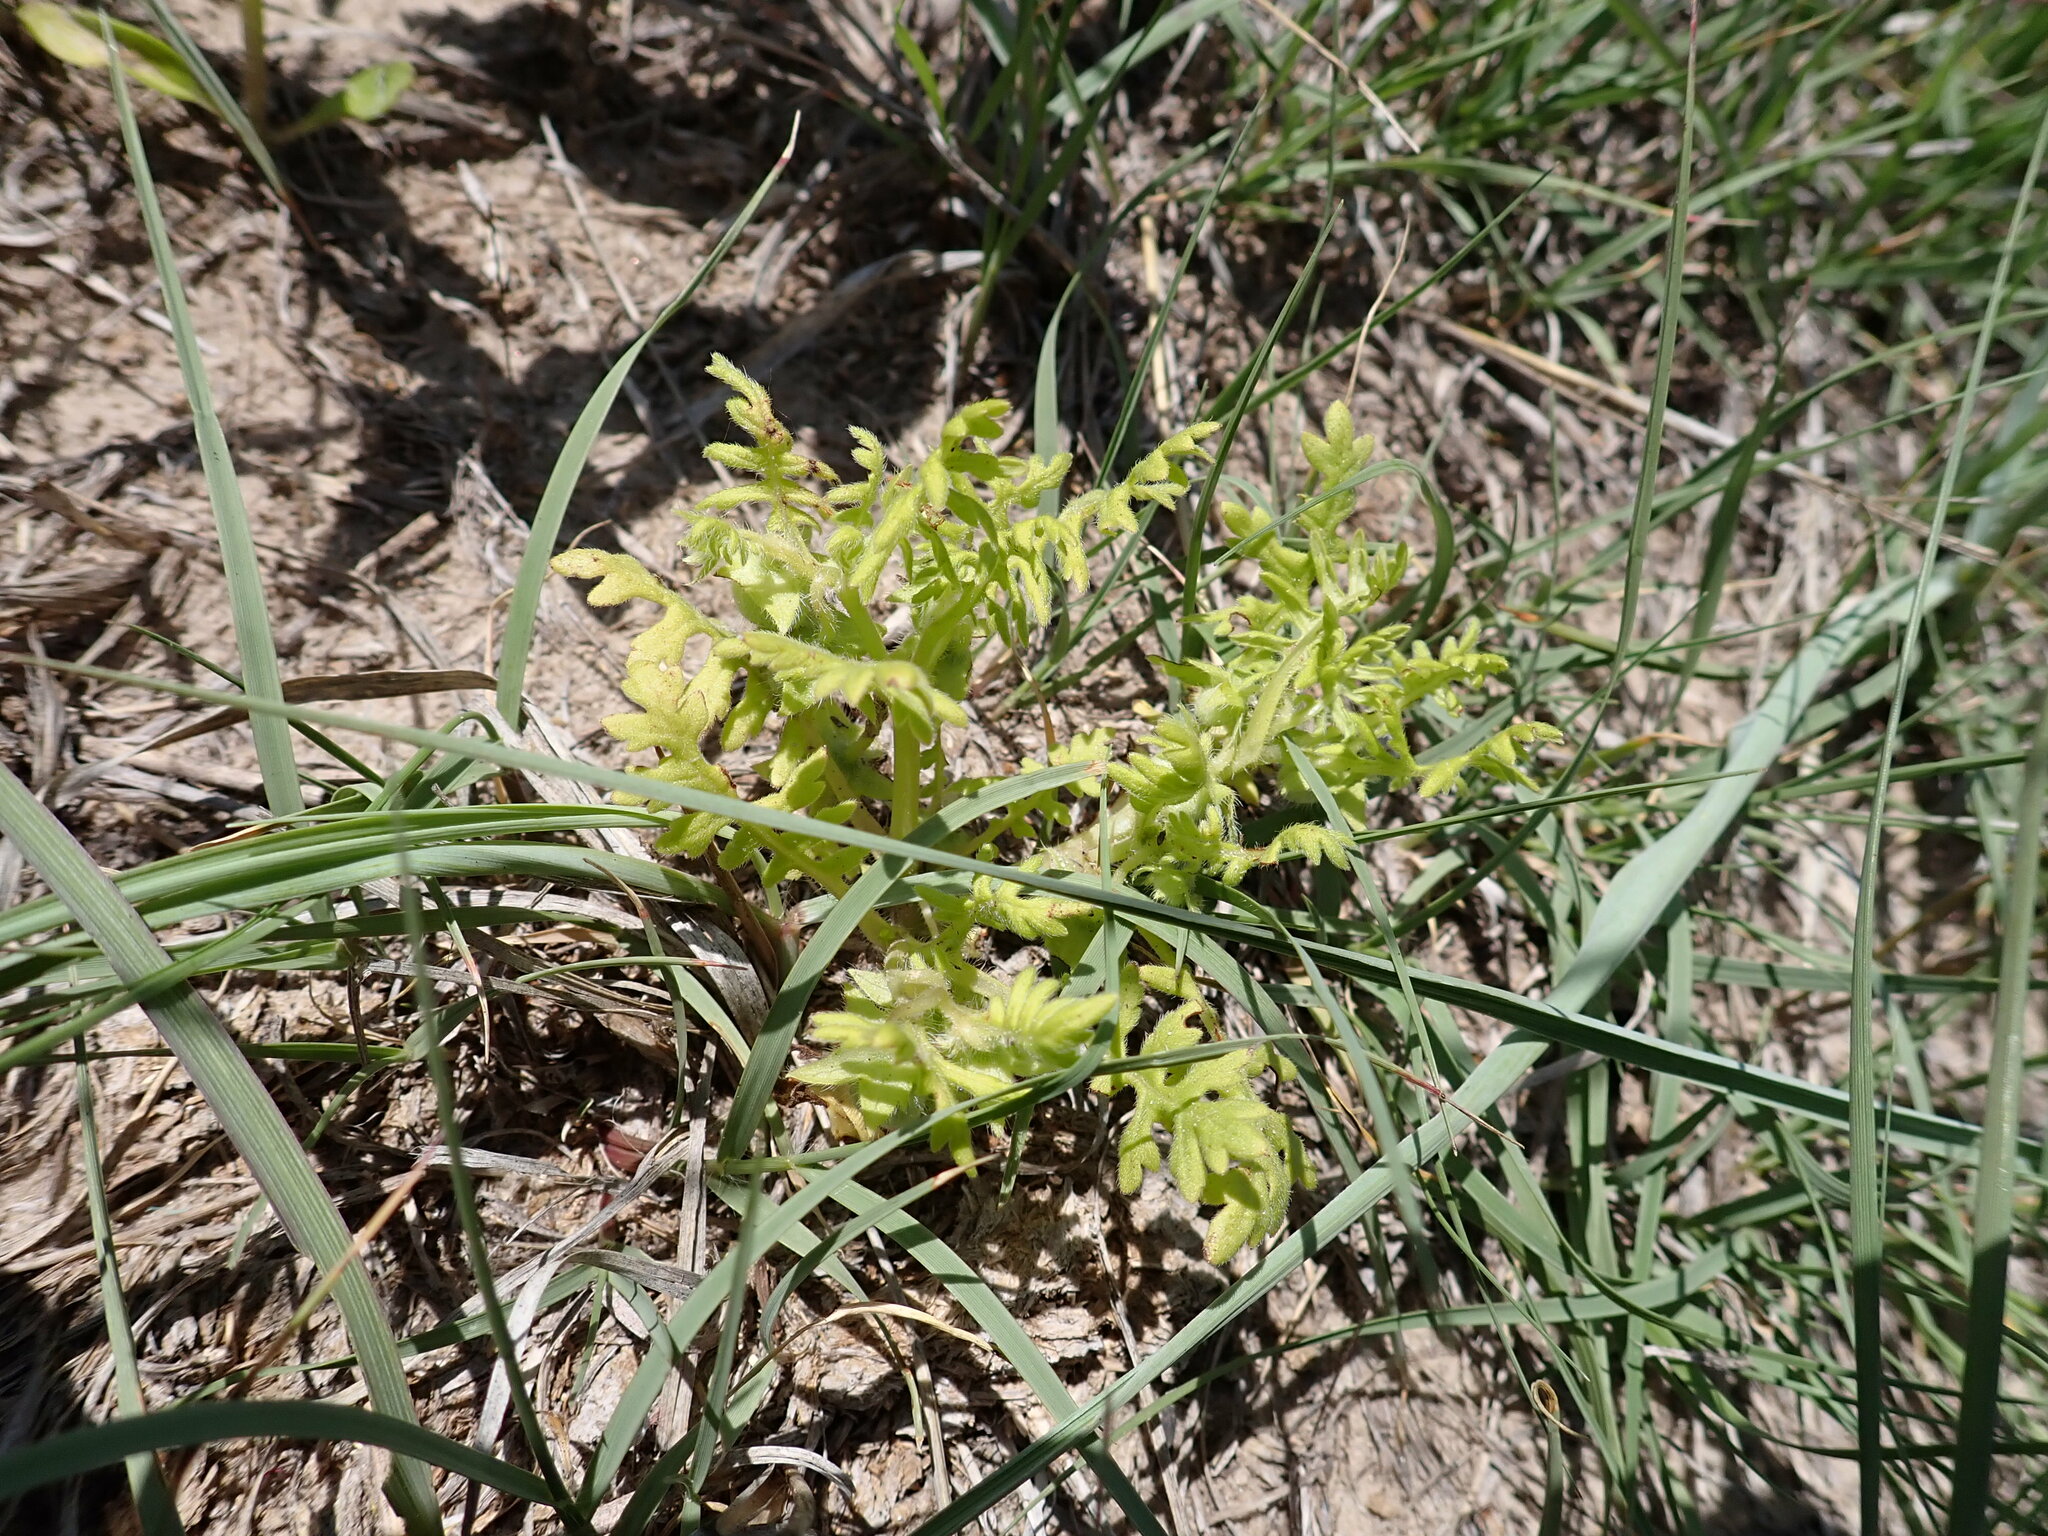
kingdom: Plantae
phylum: Tracheophyta
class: Magnoliopsida
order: Boraginales
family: Hydrophyllaceae
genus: Ellisia
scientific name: Ellisia nyctelea
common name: Aunt lucy
